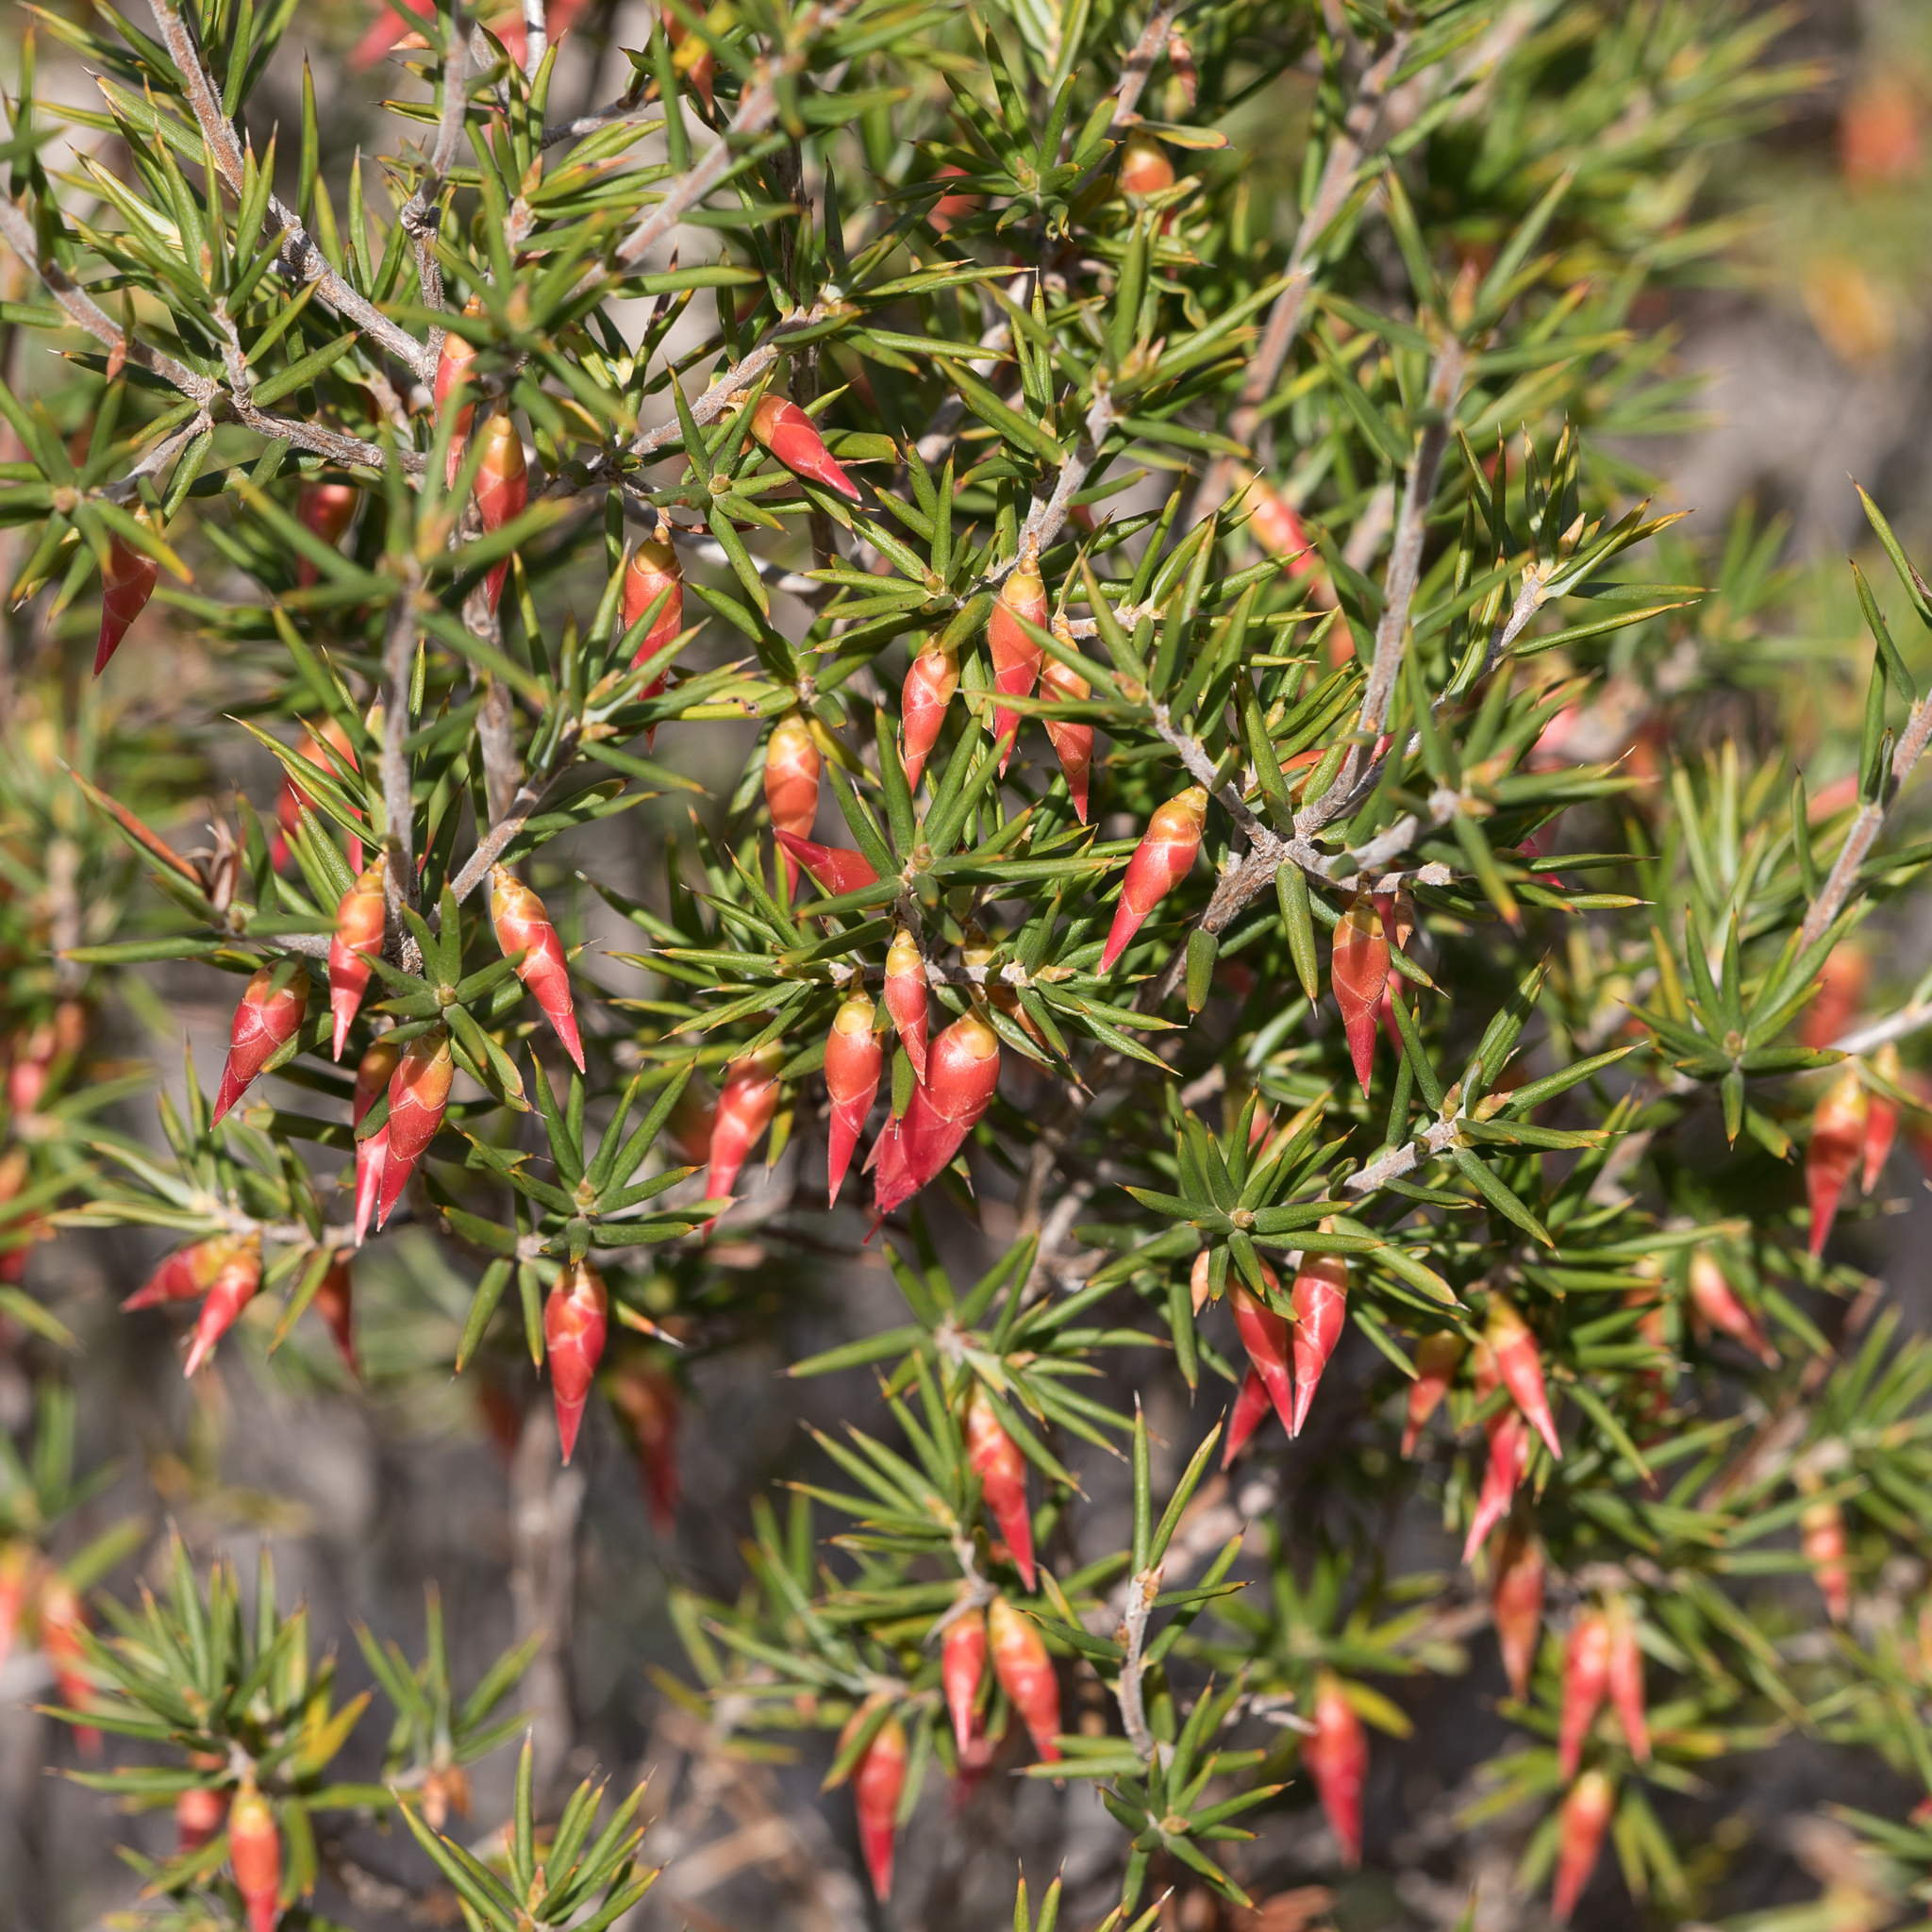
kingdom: Plantae
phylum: Tracheophyta
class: Magnoliopsida
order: Ericales
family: Ericaceae
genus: Stenanthera
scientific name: Stenanthera conostephioides
